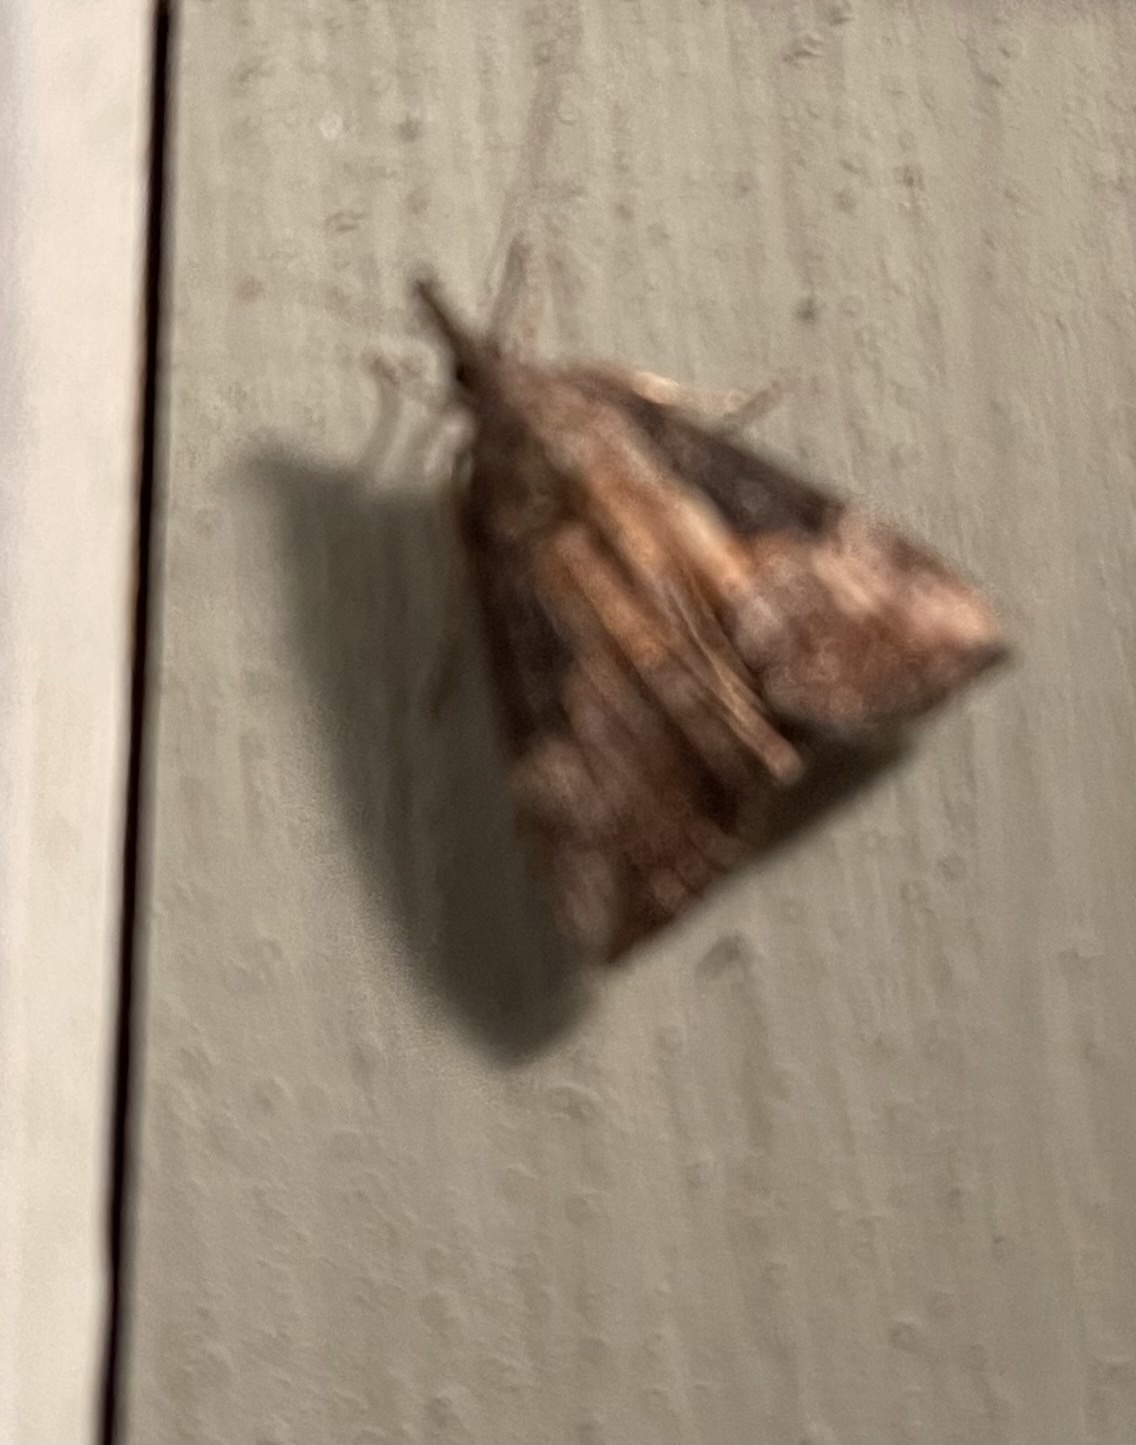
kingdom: Animalia
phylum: Arthropoda
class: Insecta
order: Lepidoptera
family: Erebidae
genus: Hypena
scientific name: Hypena scabra
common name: Green cloverworm
